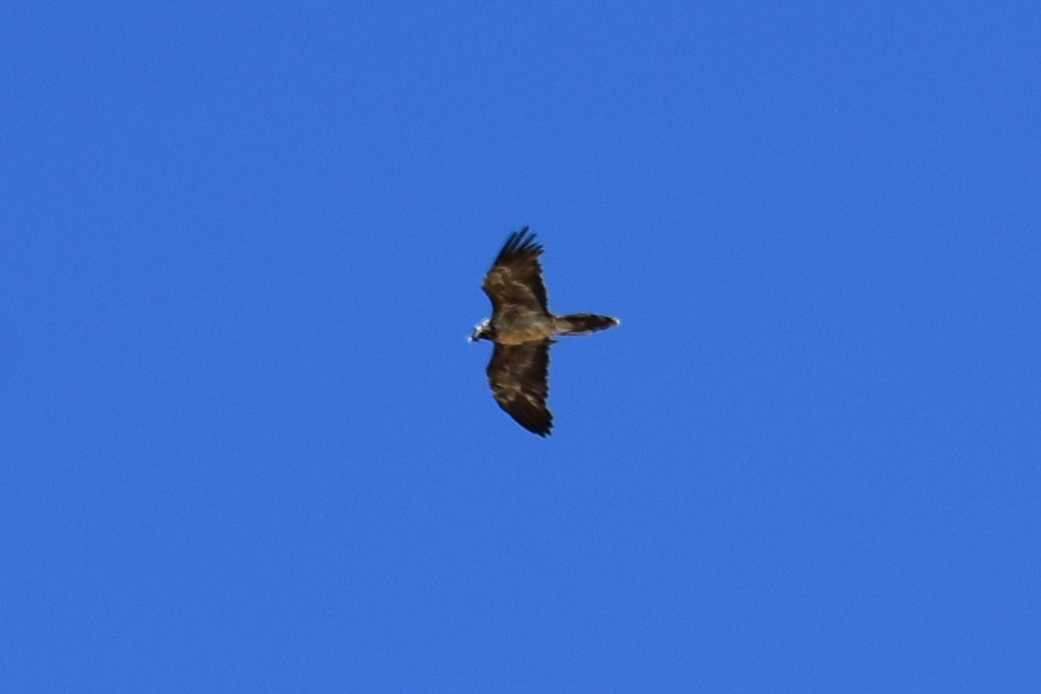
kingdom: Animalia
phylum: Chordata
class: Aves
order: Accipitriformes
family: Accipitridae
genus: Gypaetus
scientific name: Gypaetus barbatus
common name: Bearded vulture
